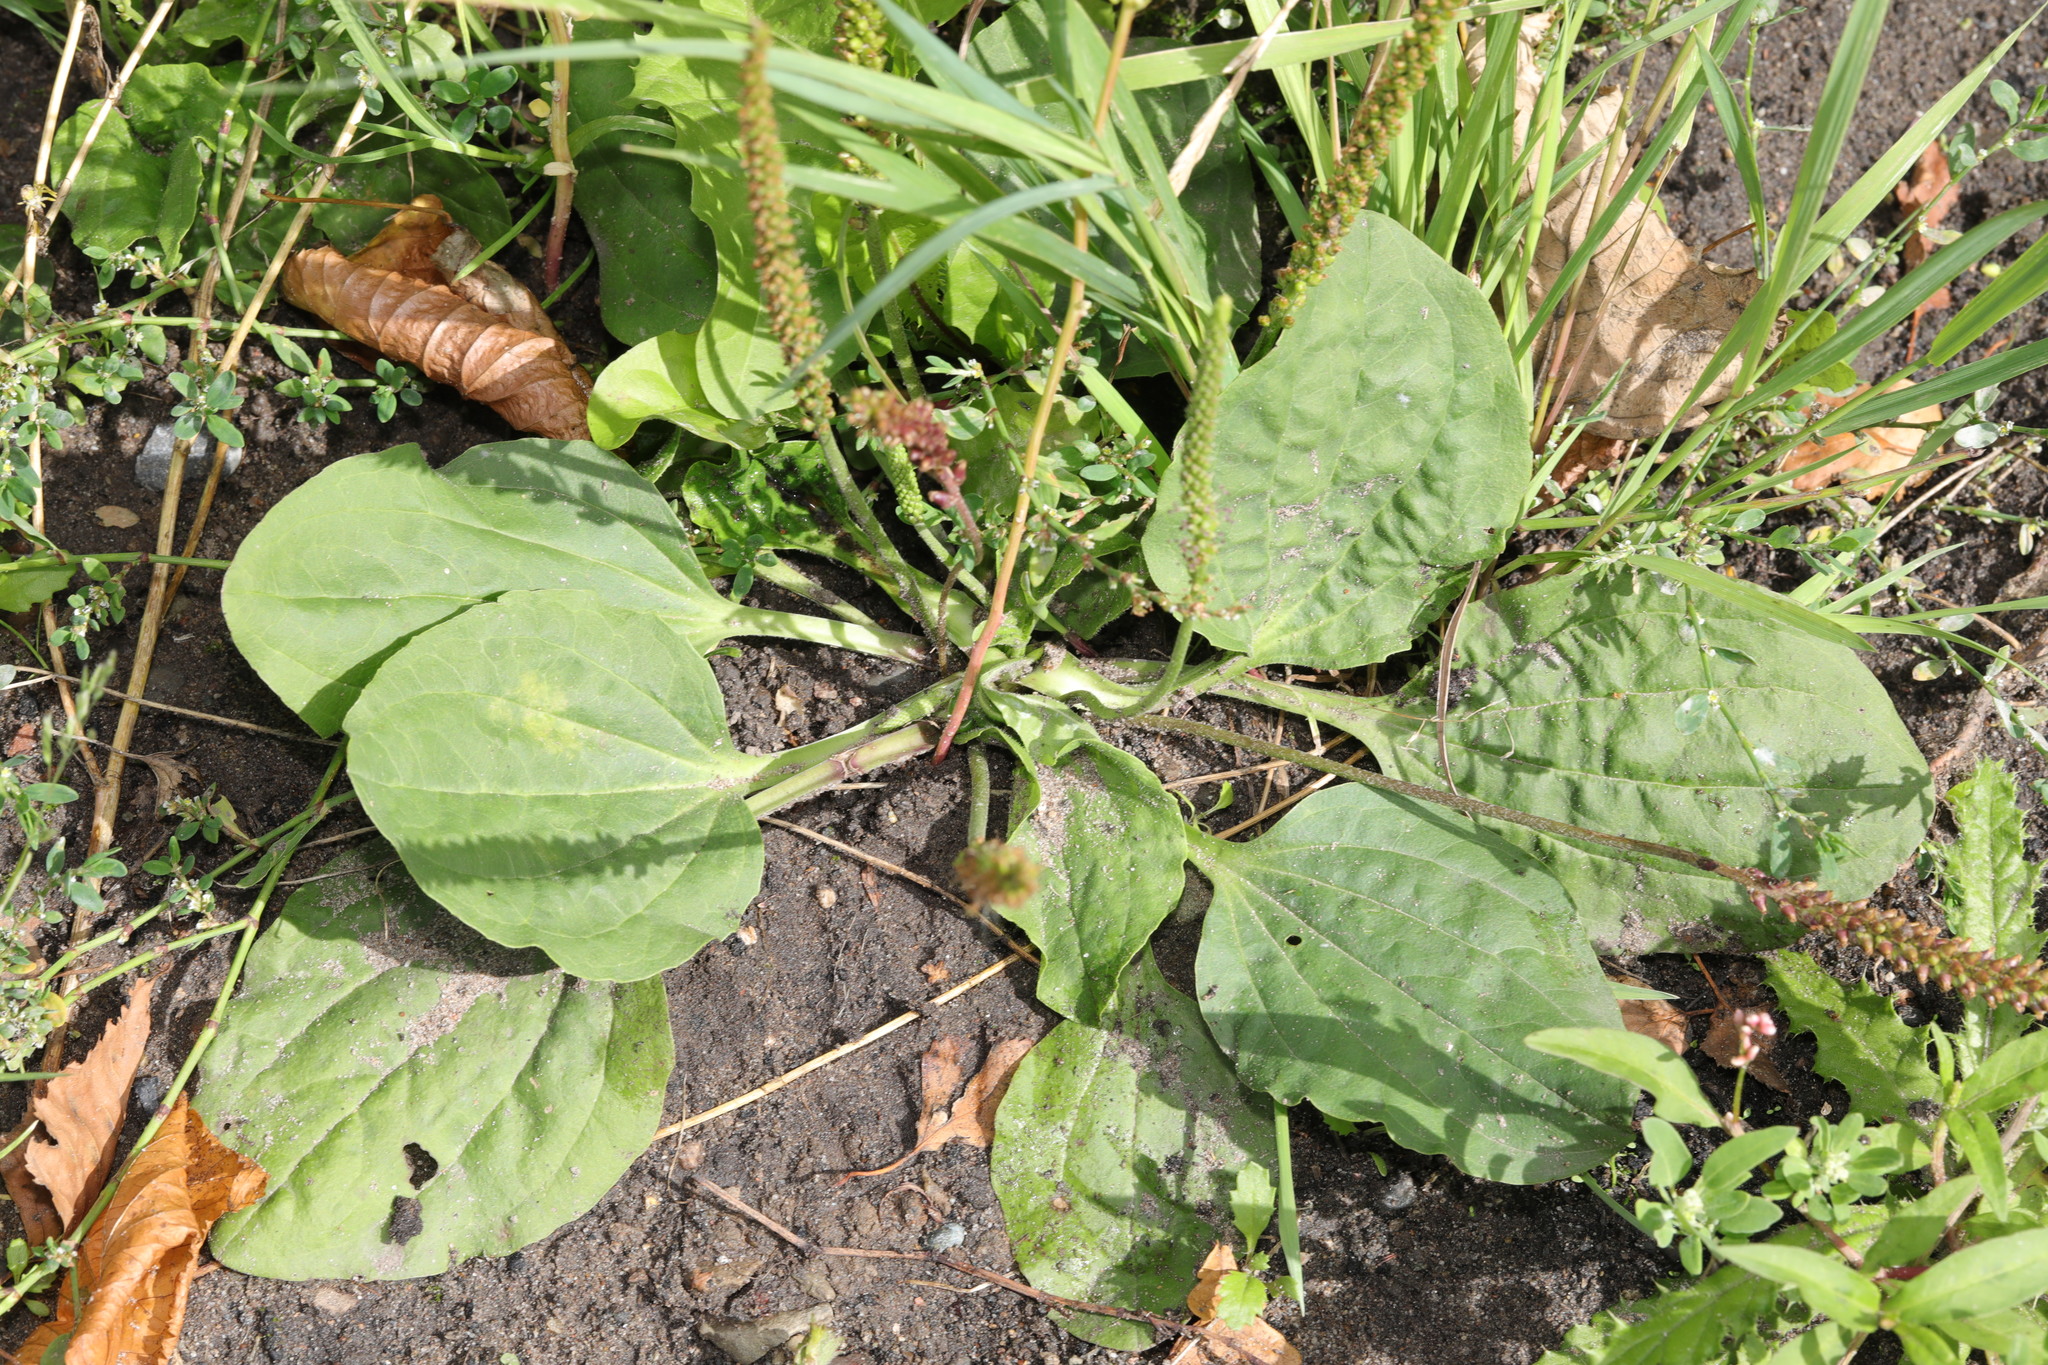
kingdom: Plantae
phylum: Tracheophyta
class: Magnoliopsida
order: Lamiales
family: Plantaginaceae
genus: Plantago
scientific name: Plantago major
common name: Common plantain
